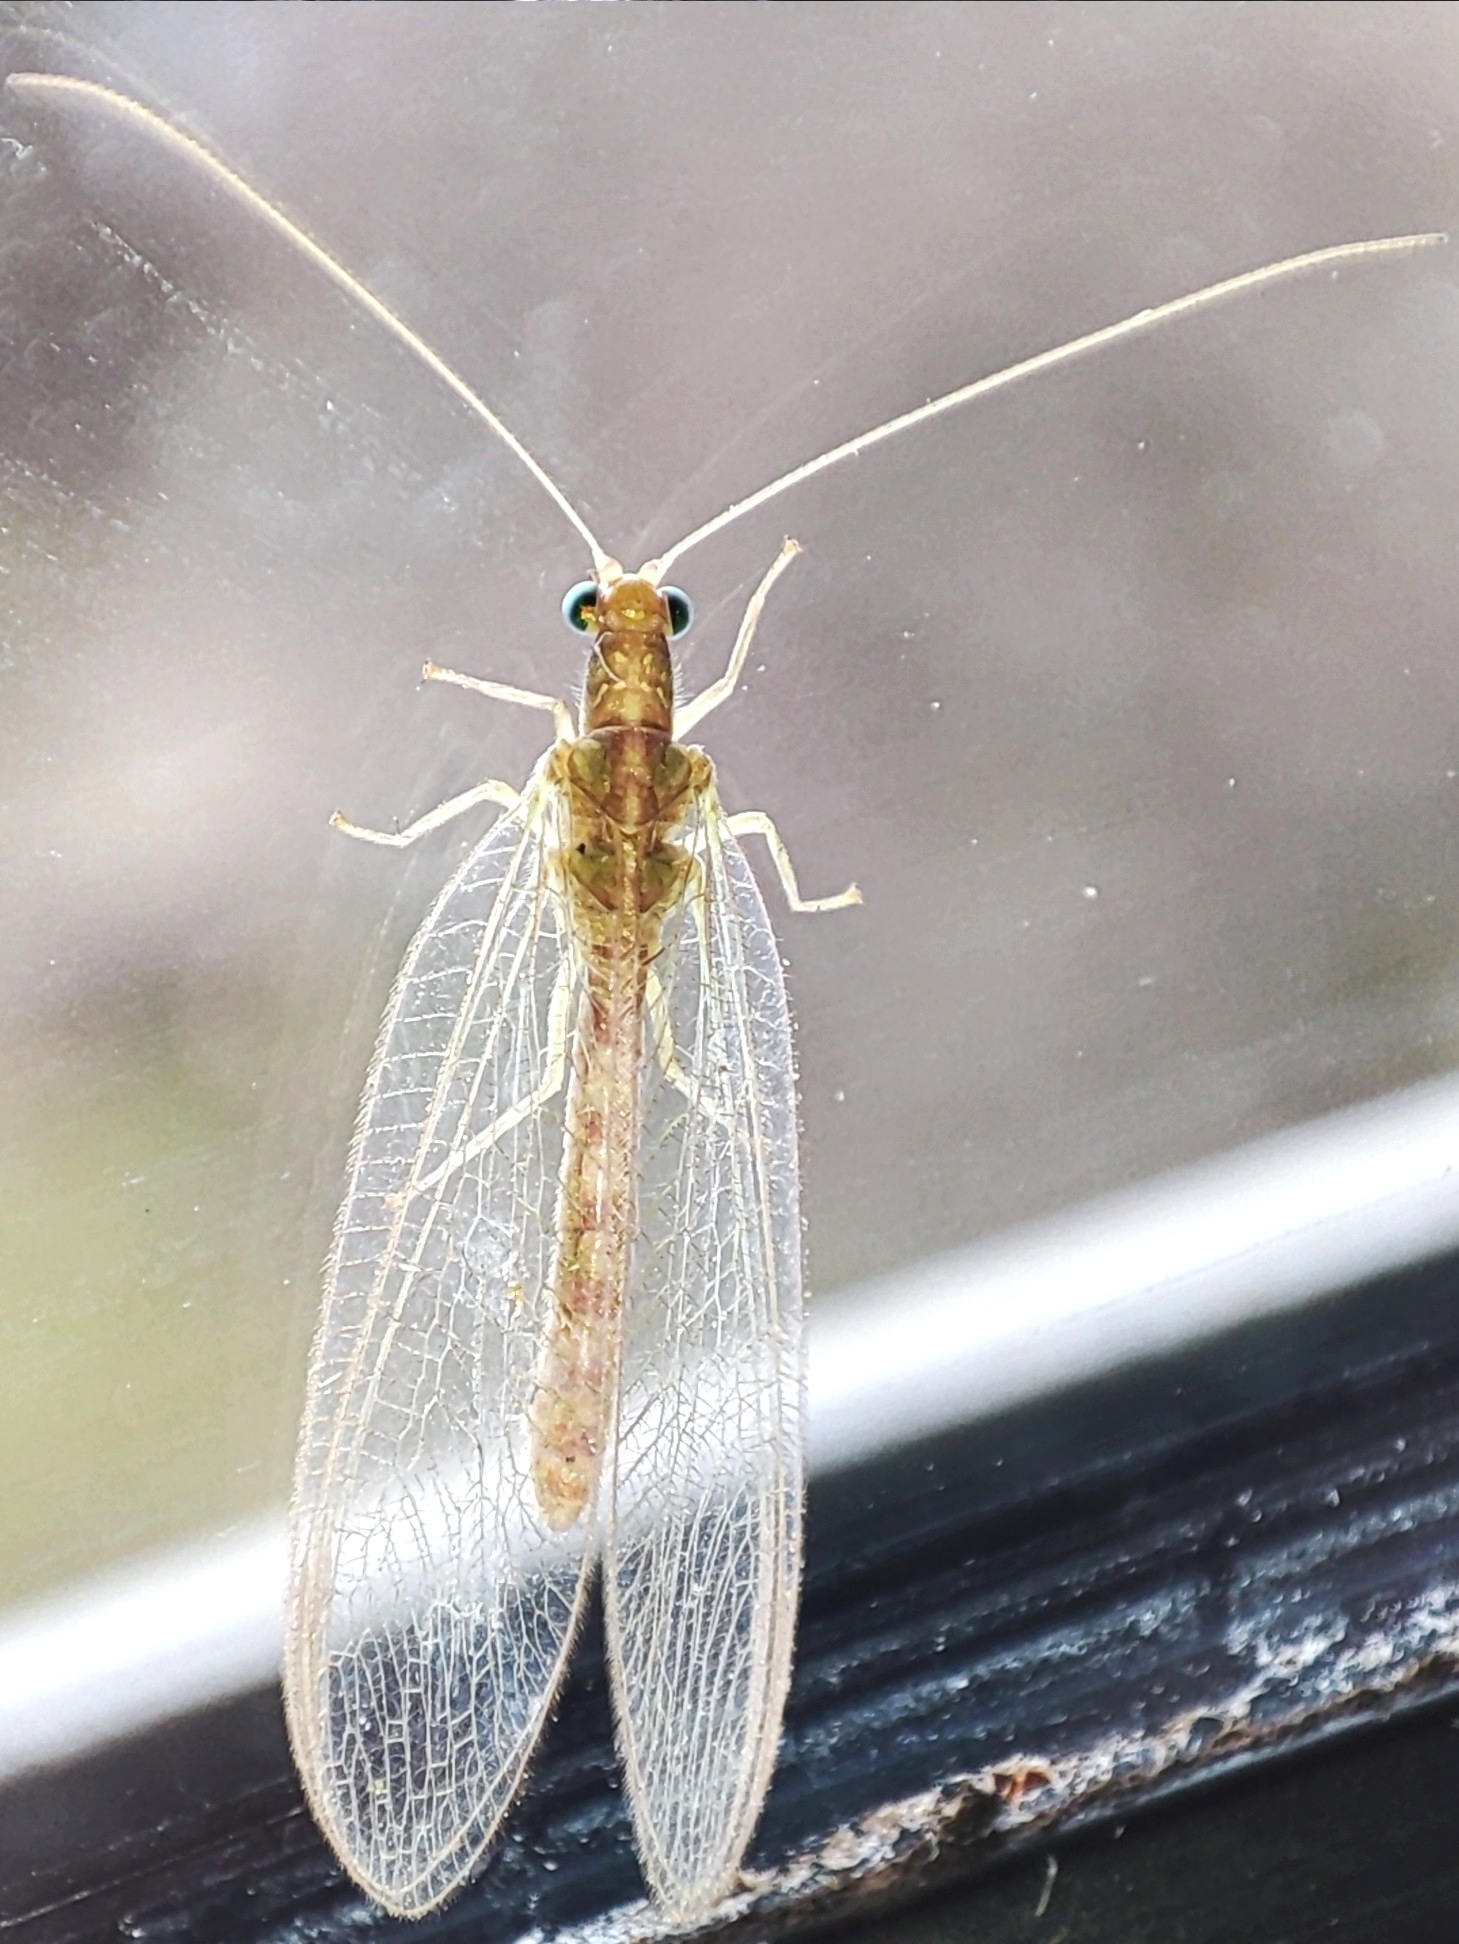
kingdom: Animalia
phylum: Arthropoda
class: Insecta
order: Neuroptera
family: Chrysopidae
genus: Chrysoperla
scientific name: Chrysoperla
